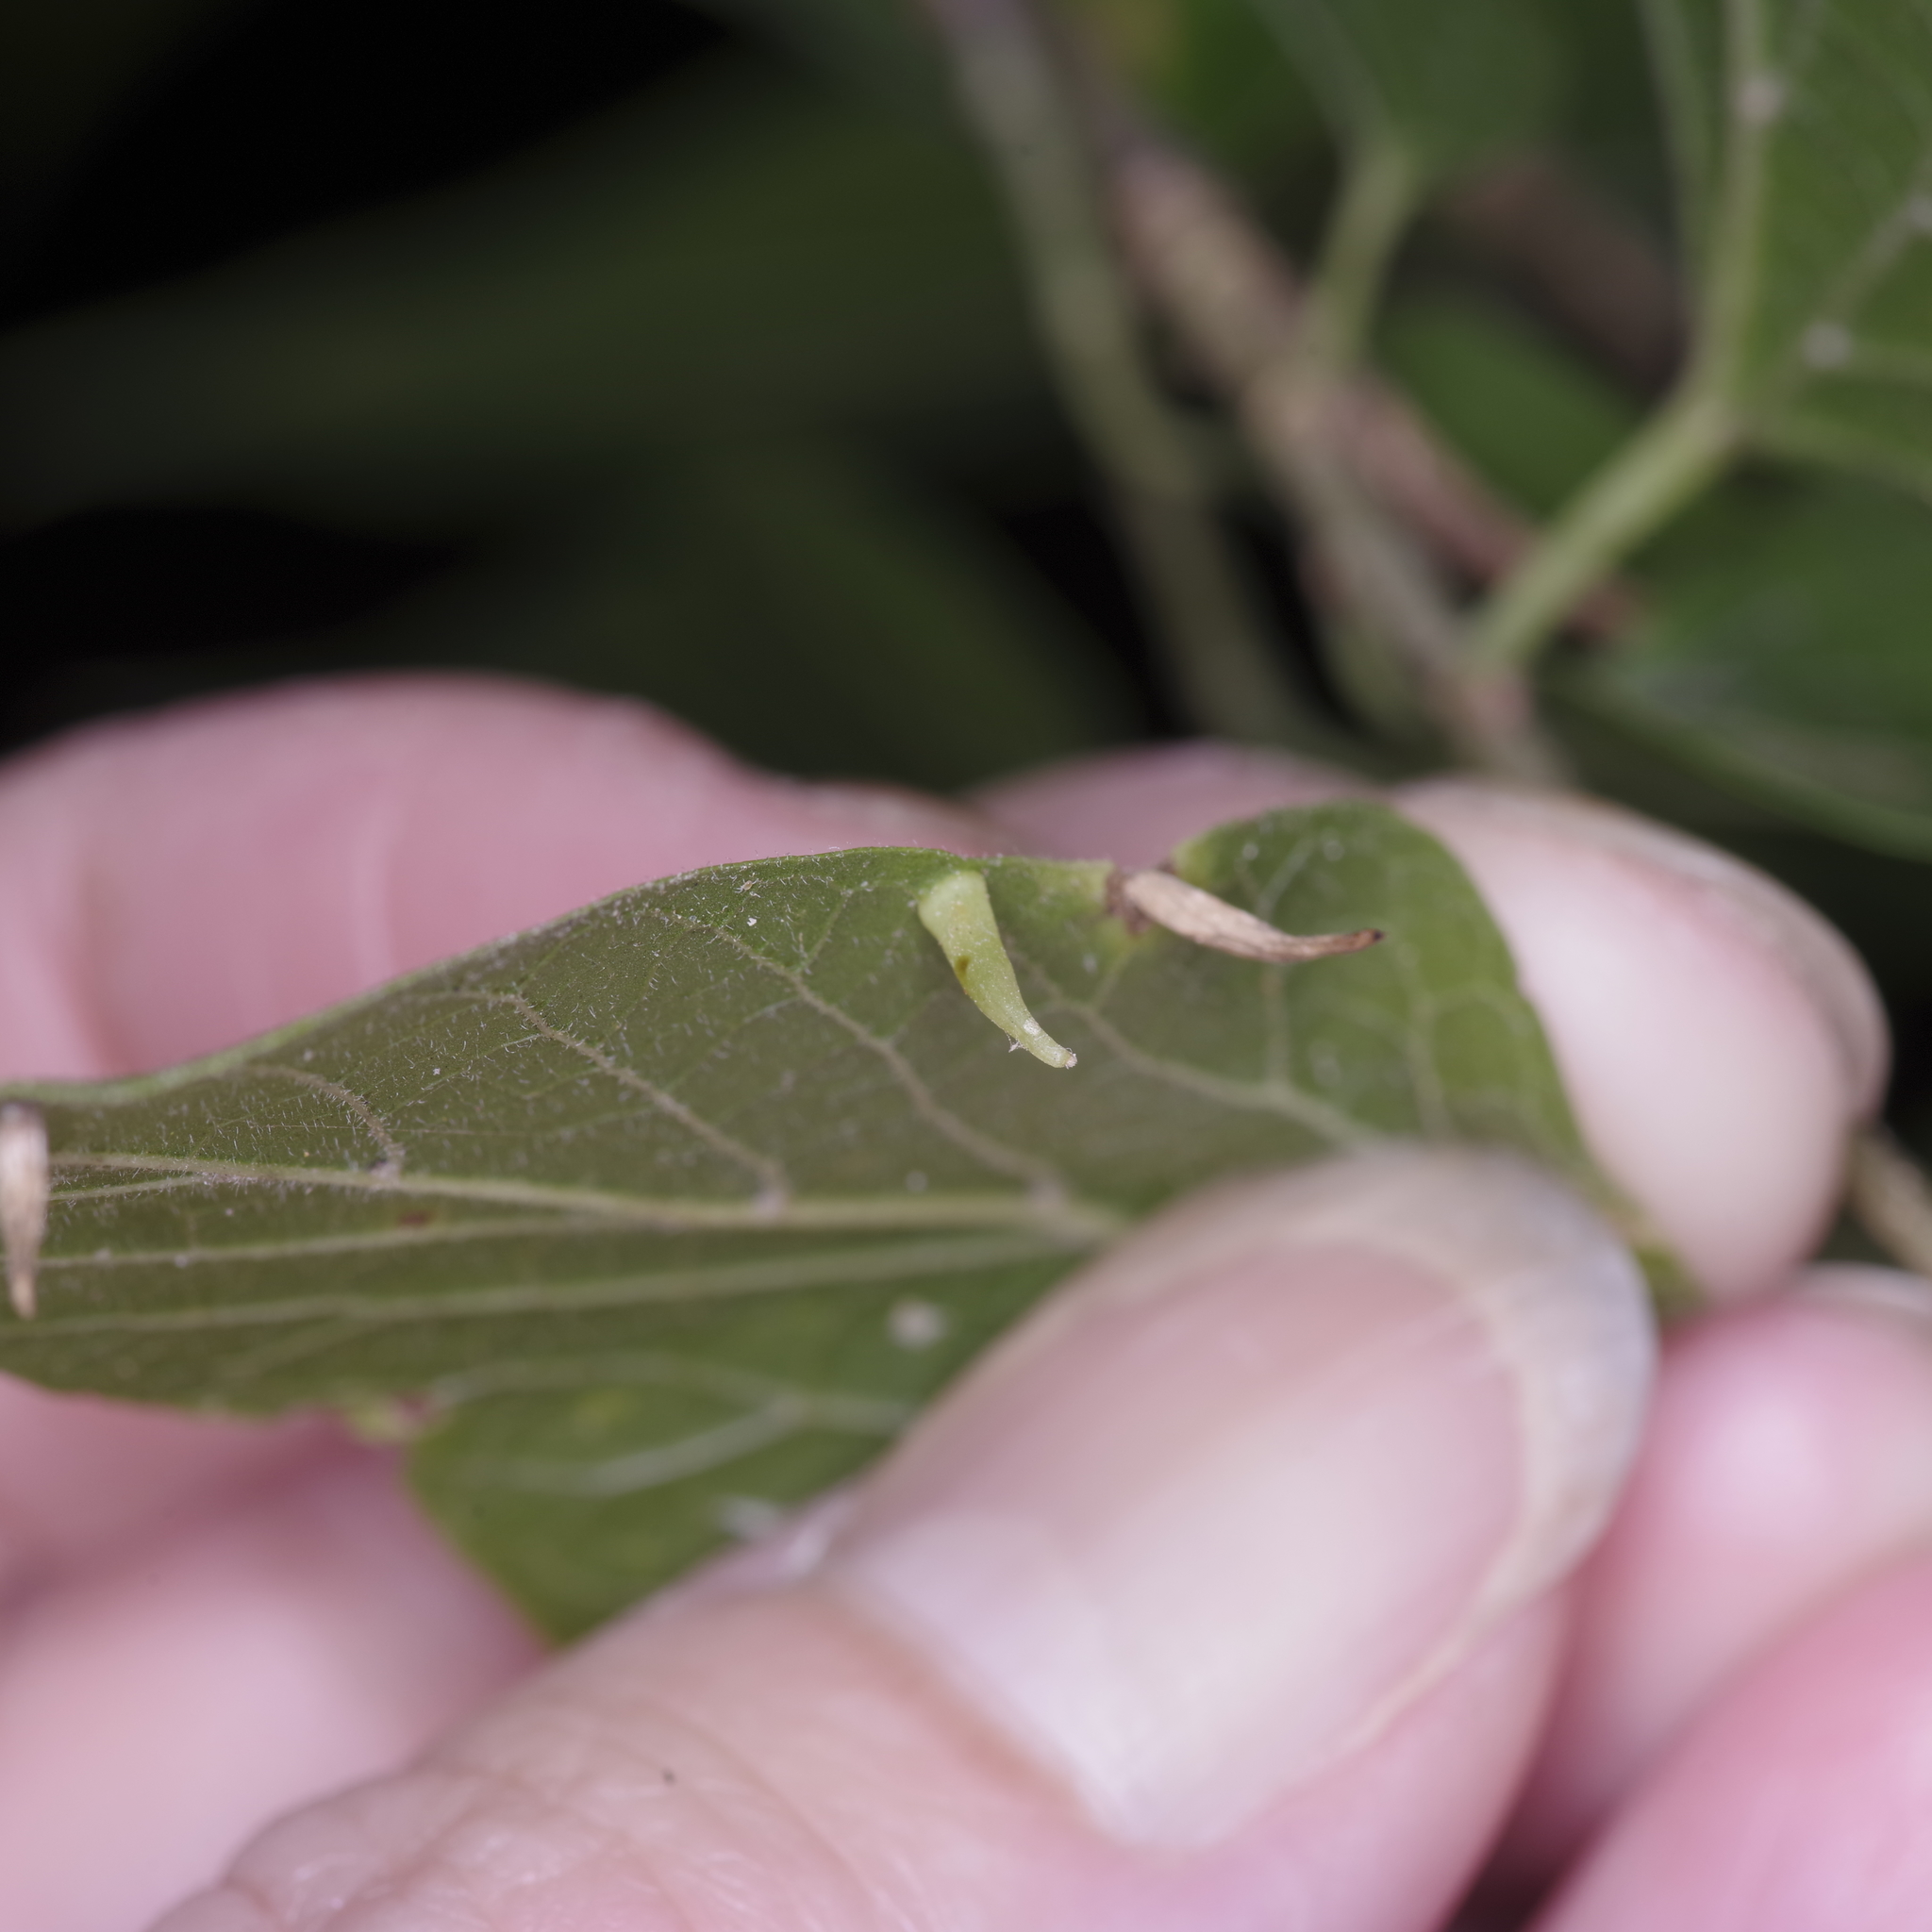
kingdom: Animalia
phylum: Arthropoda
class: Insecta
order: Diptera
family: Cecidomyiidae
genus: Celticecis
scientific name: Celticecis subulata
